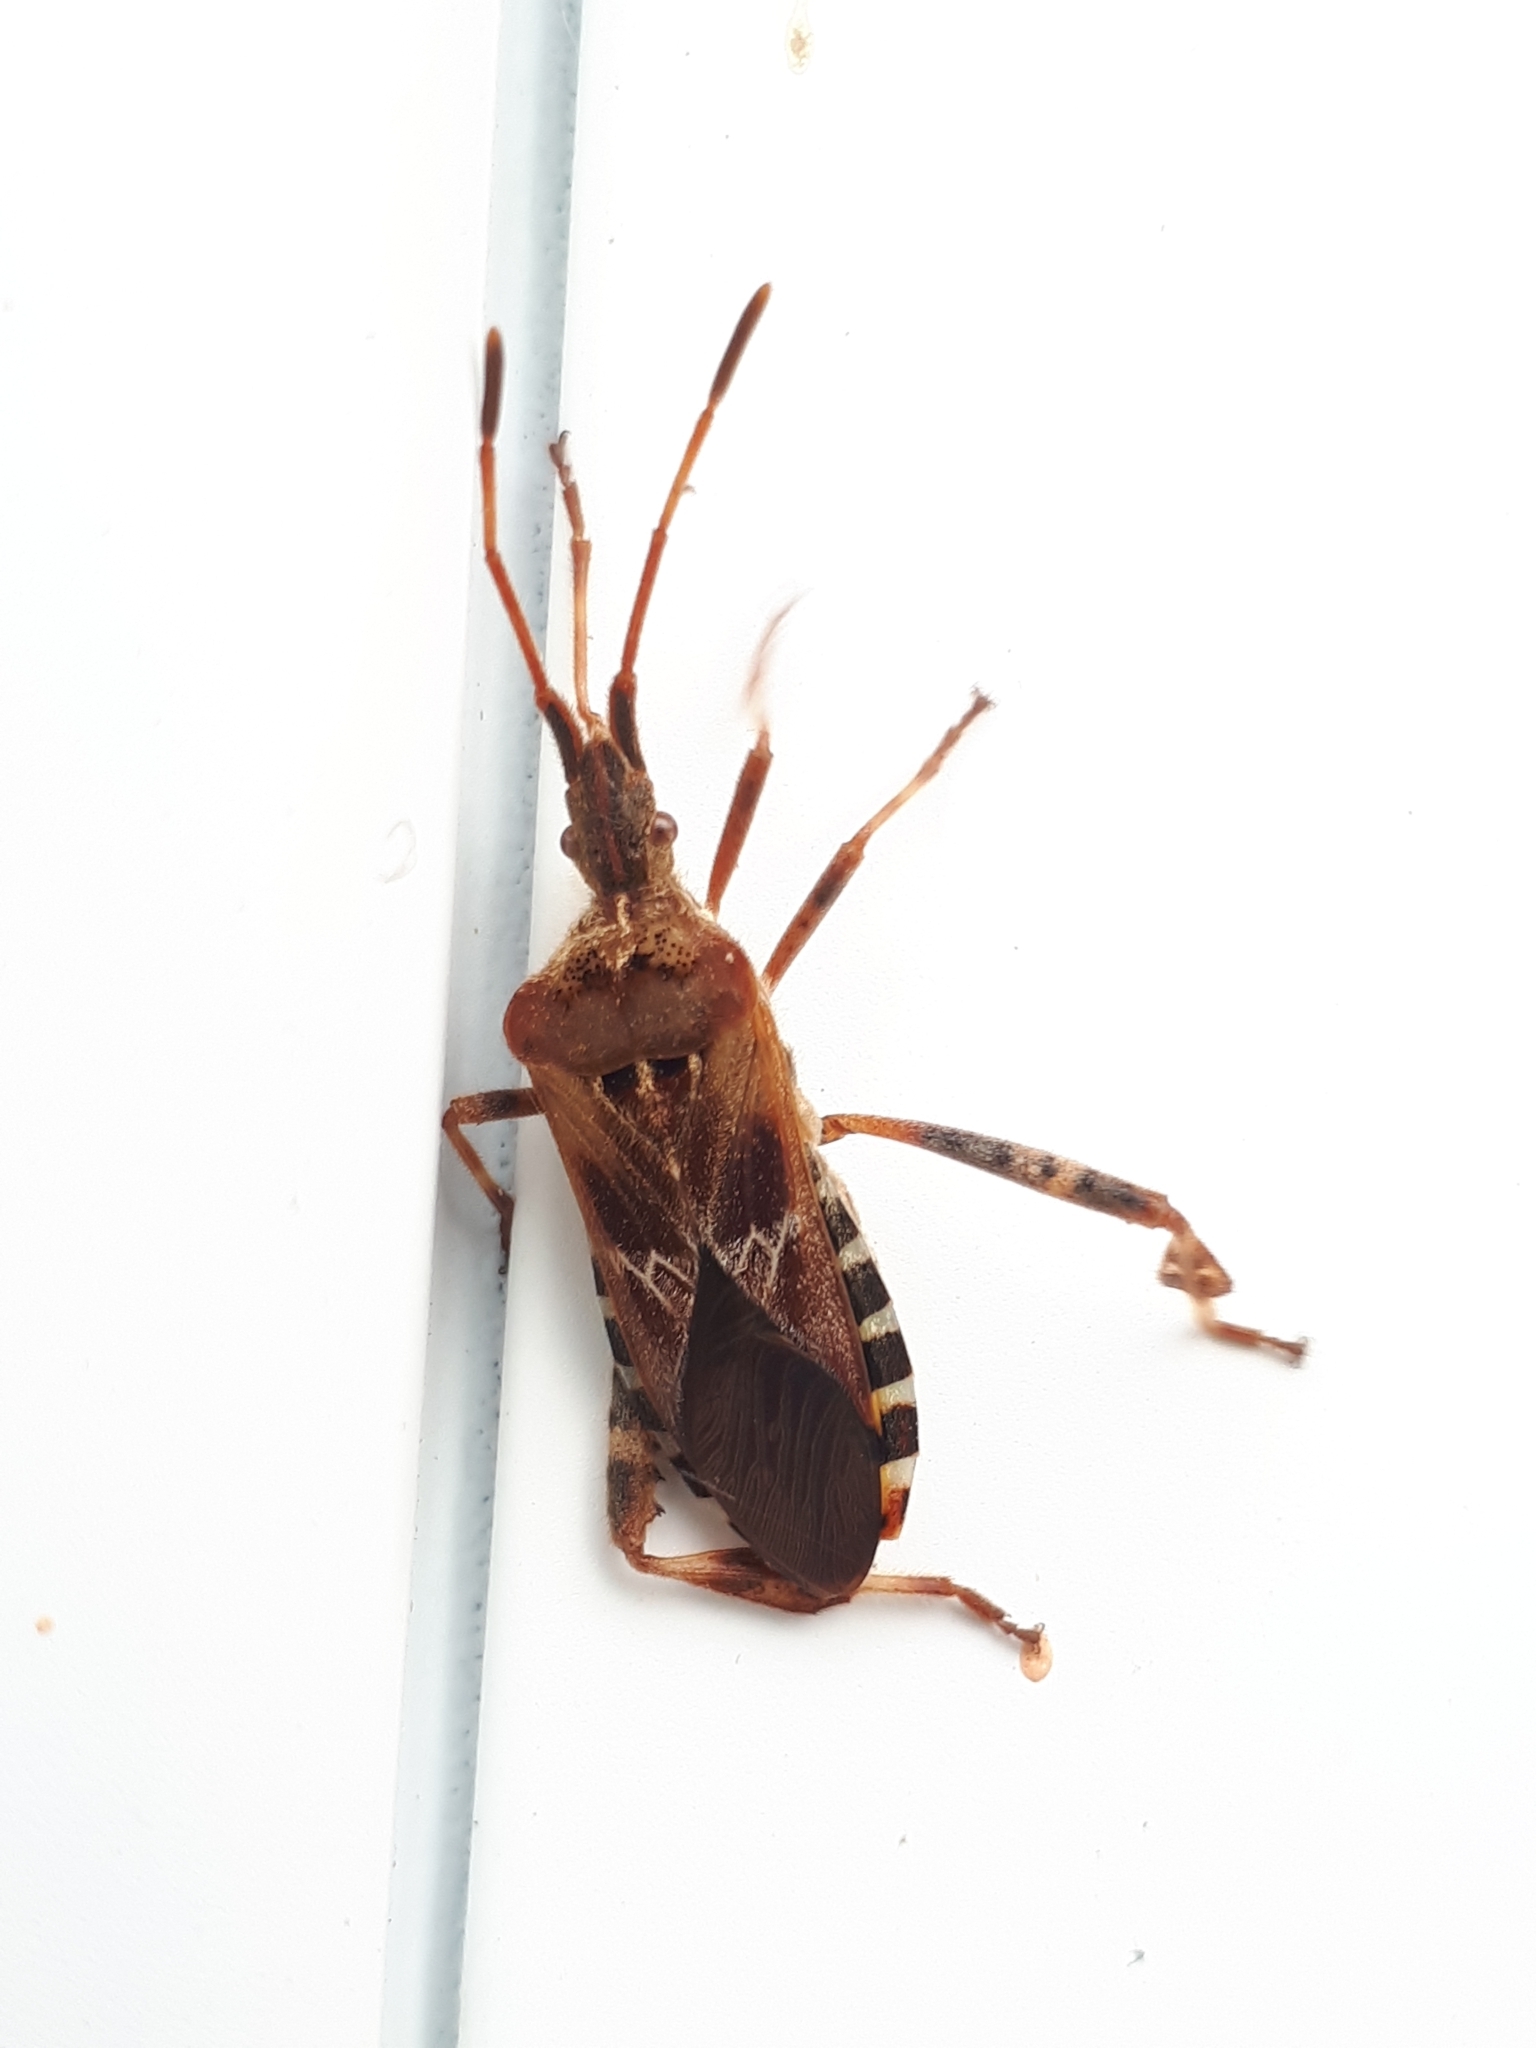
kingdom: Animalia
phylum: Arthropoda
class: Insecta
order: Hemiptera
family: Coreidae
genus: Leptoglossus
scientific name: Leptoglossus occidentalis
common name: Western conifer-seed bug
